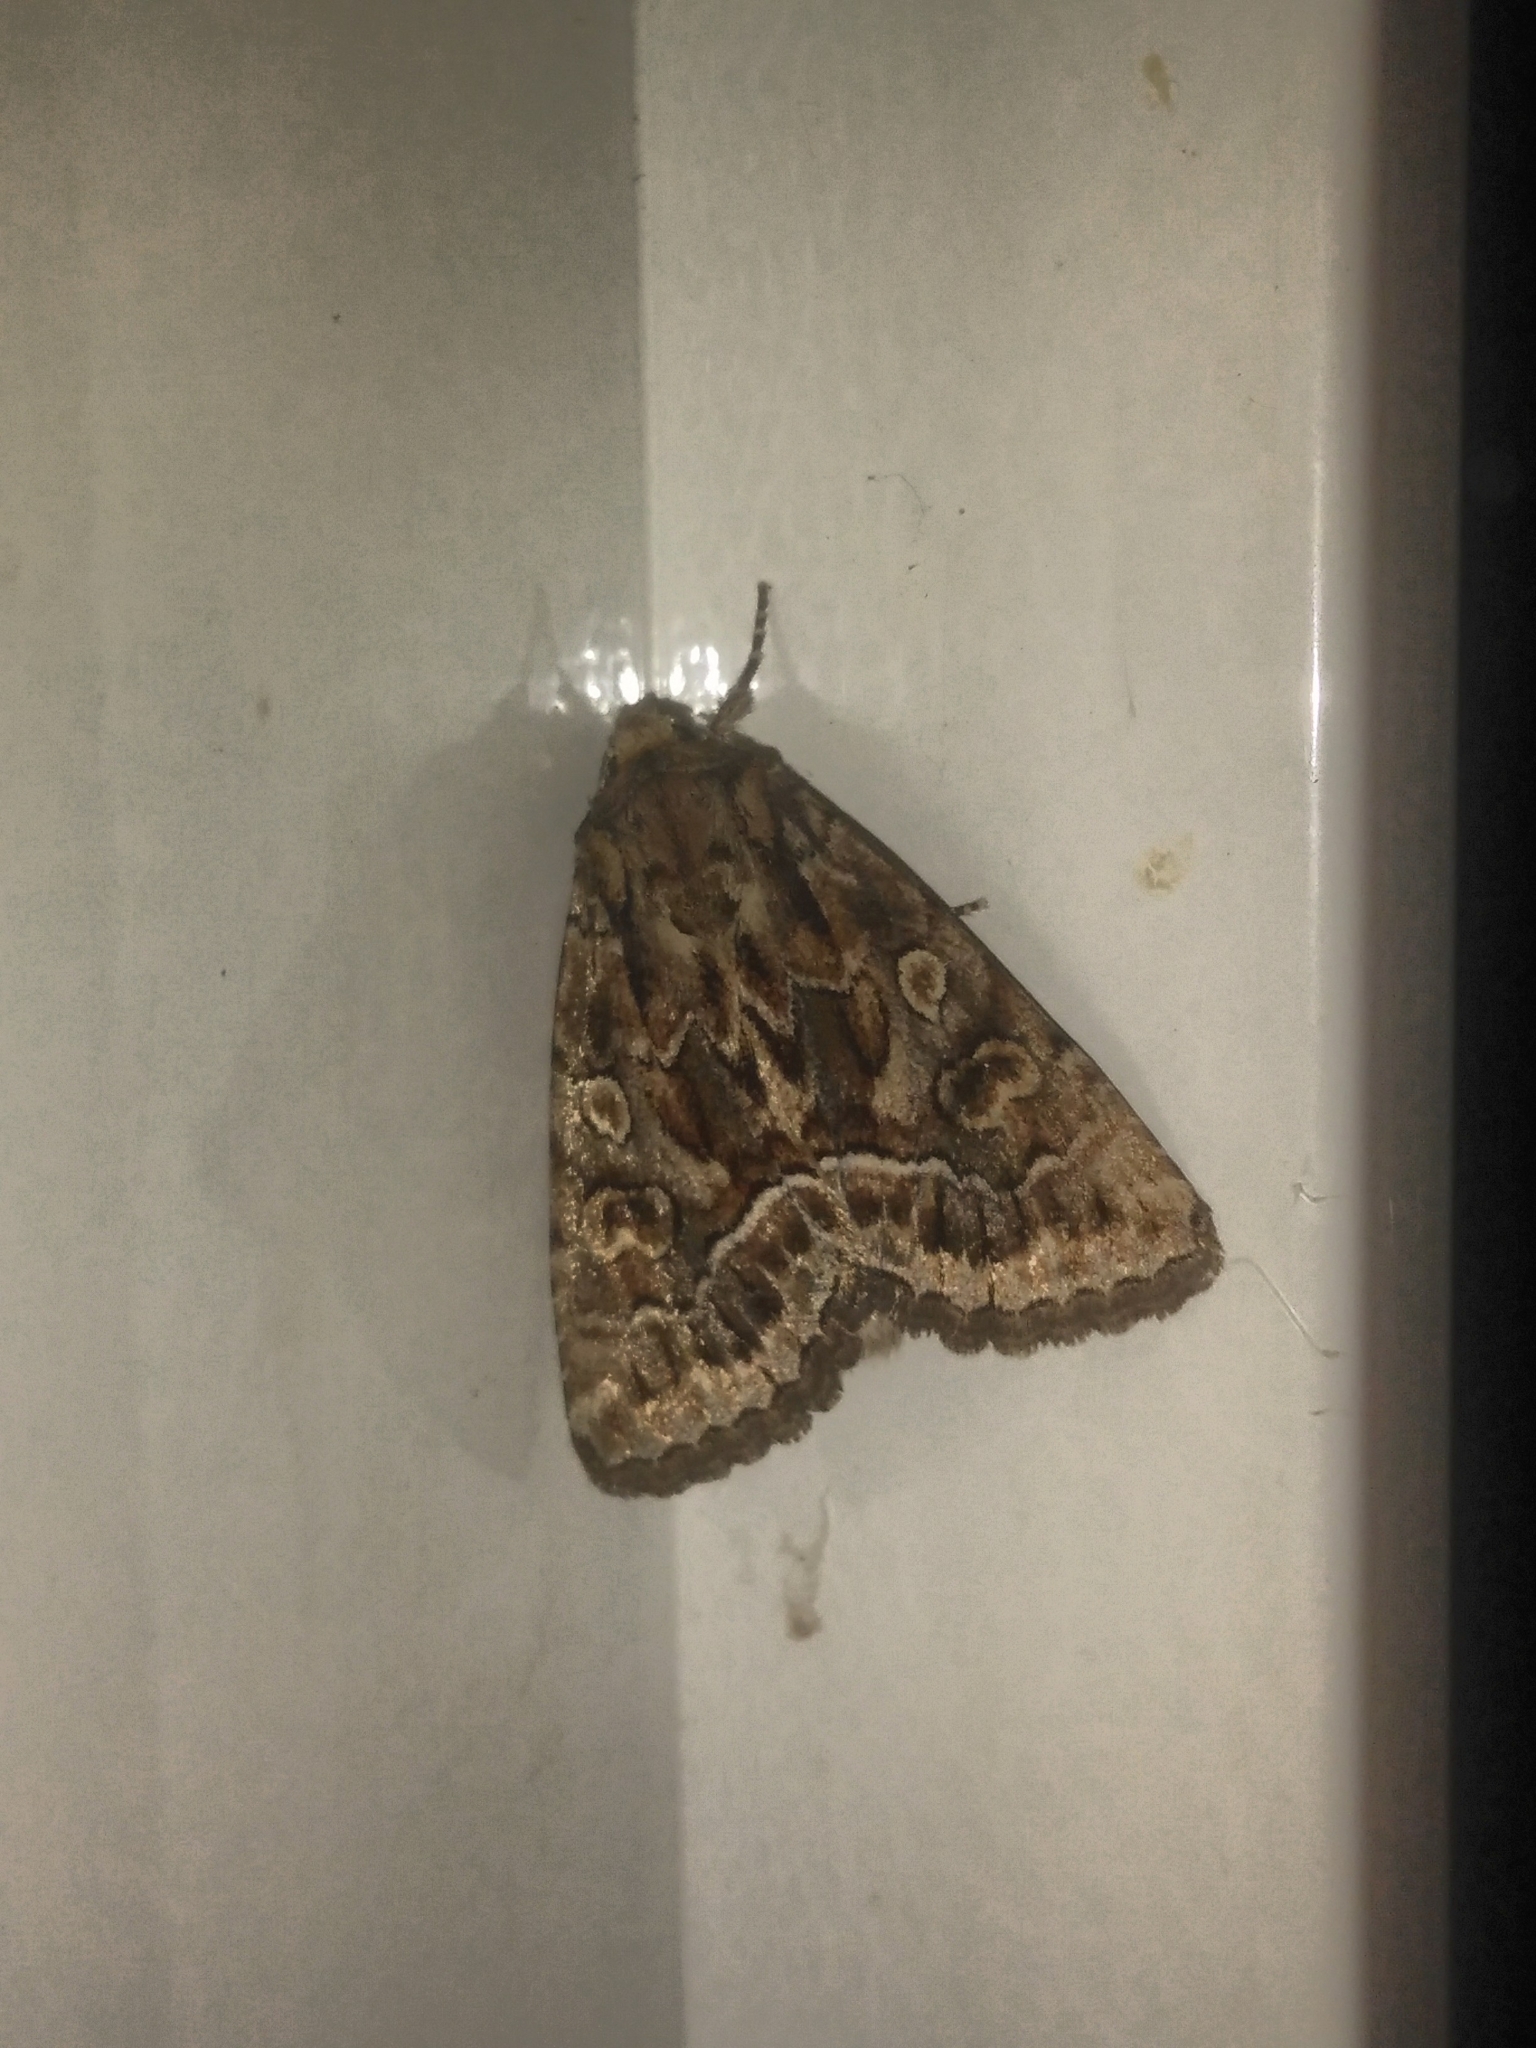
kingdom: Animalia
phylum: Arthropoda
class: Insecta
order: Lepidoptera
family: Noctuidae
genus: Thalpophila
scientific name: Thalpophila matura
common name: Straw underwing
